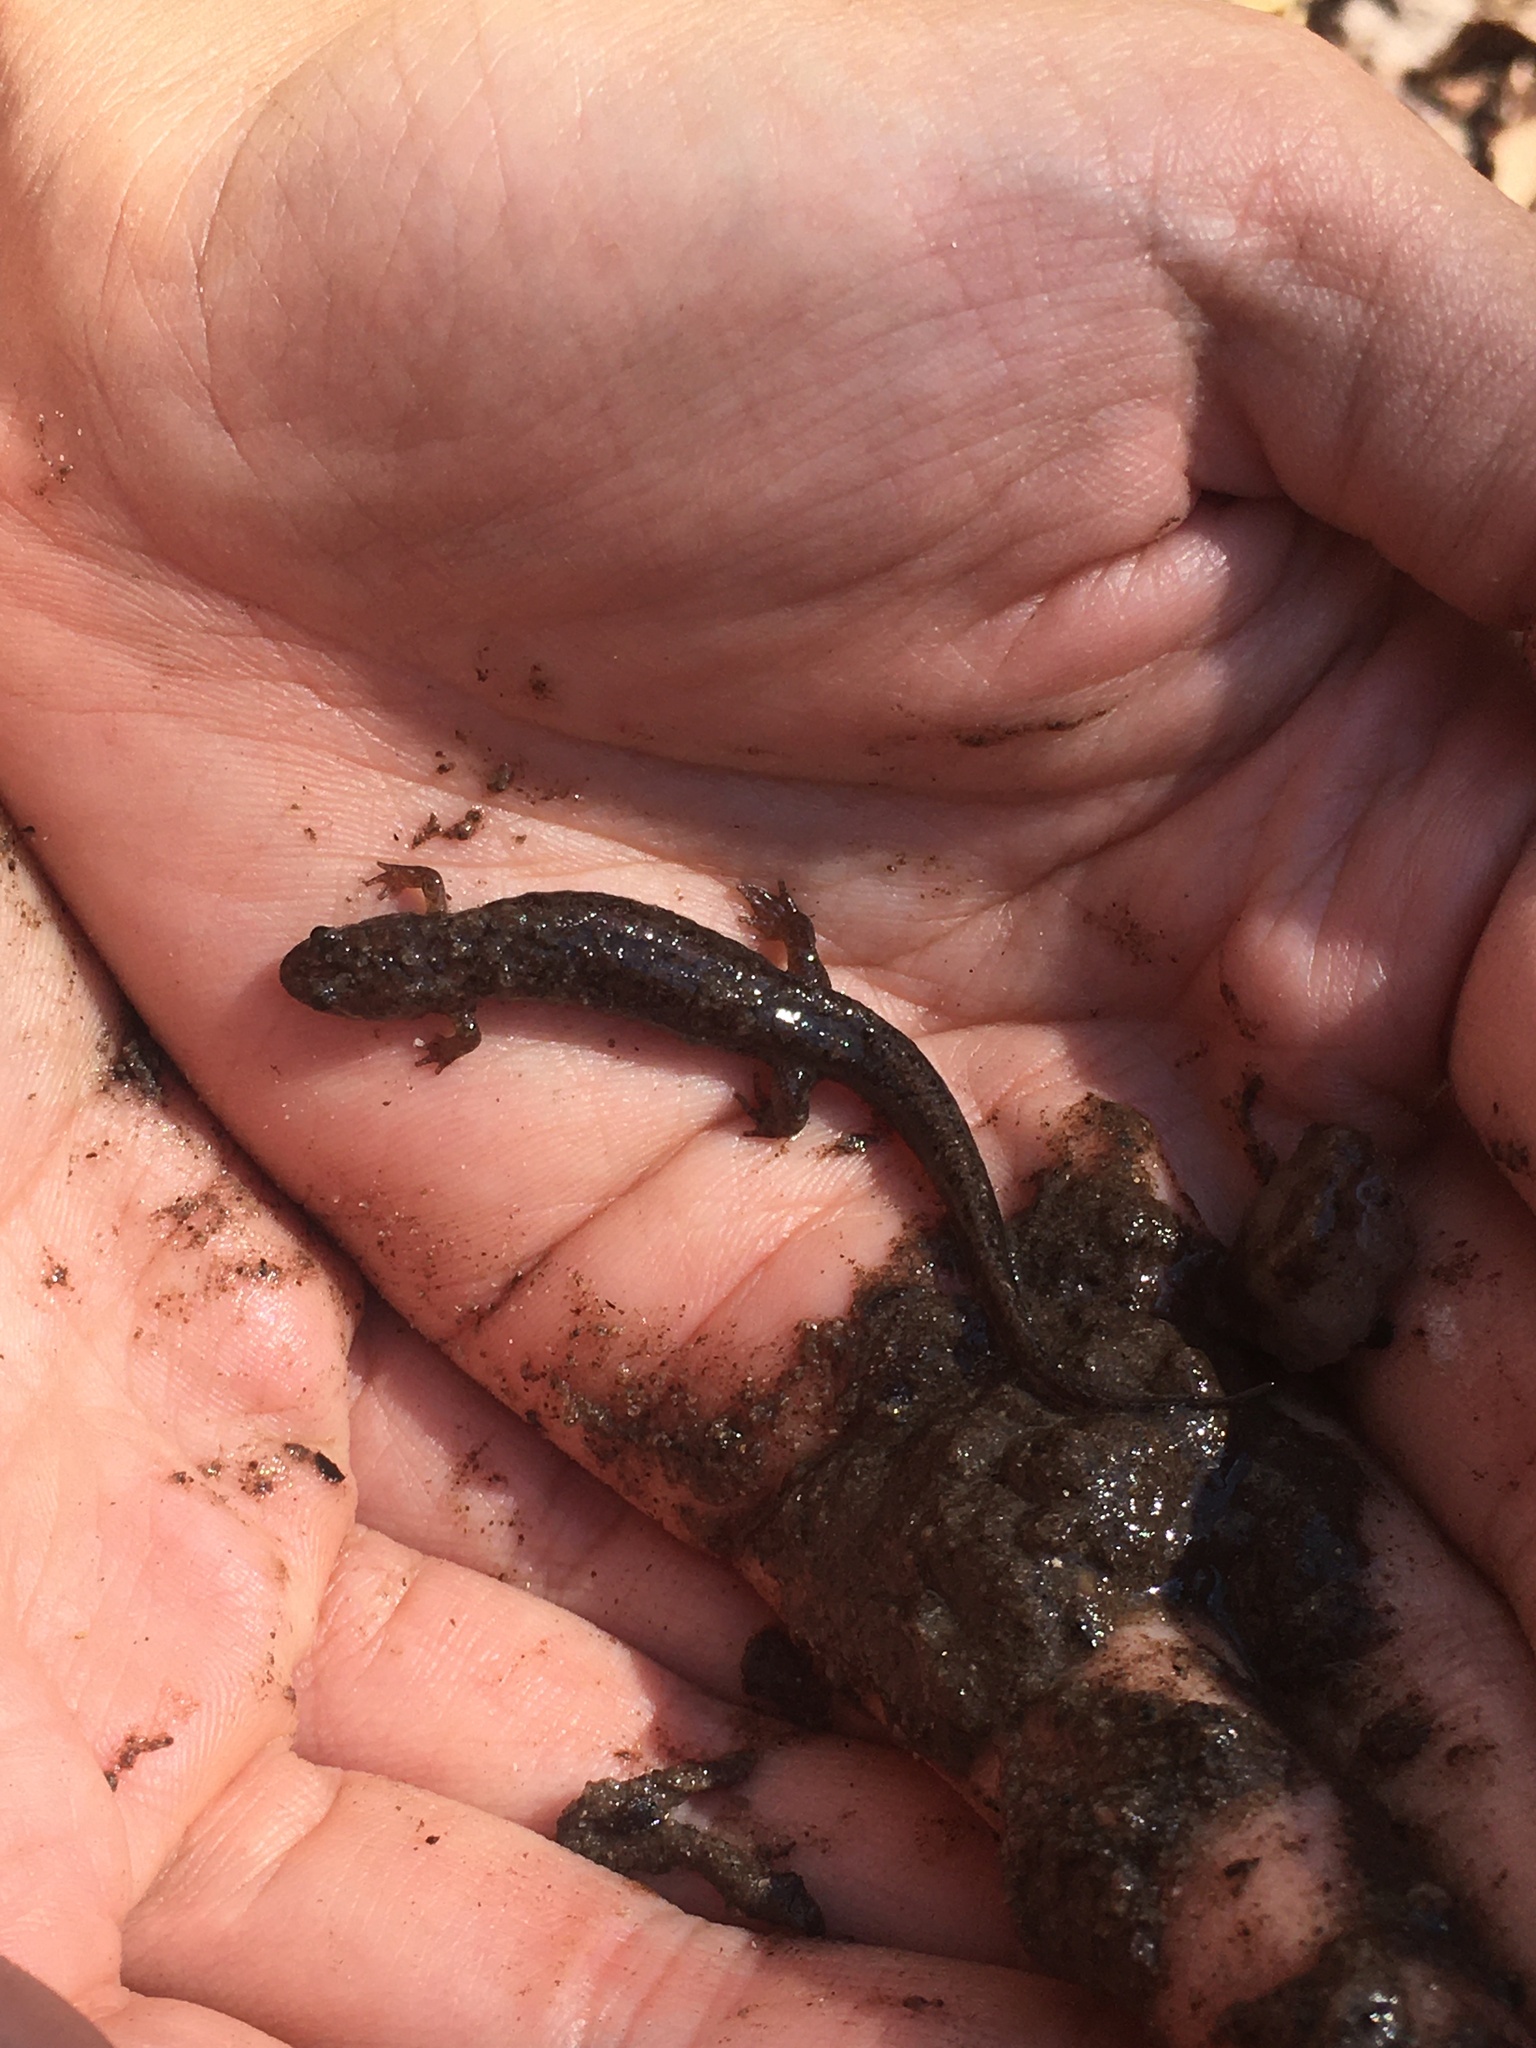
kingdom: Animalia
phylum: Chordata
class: Amphibia
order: Caudata
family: Plethodontidae
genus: Desmognathus
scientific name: Desmognathus
